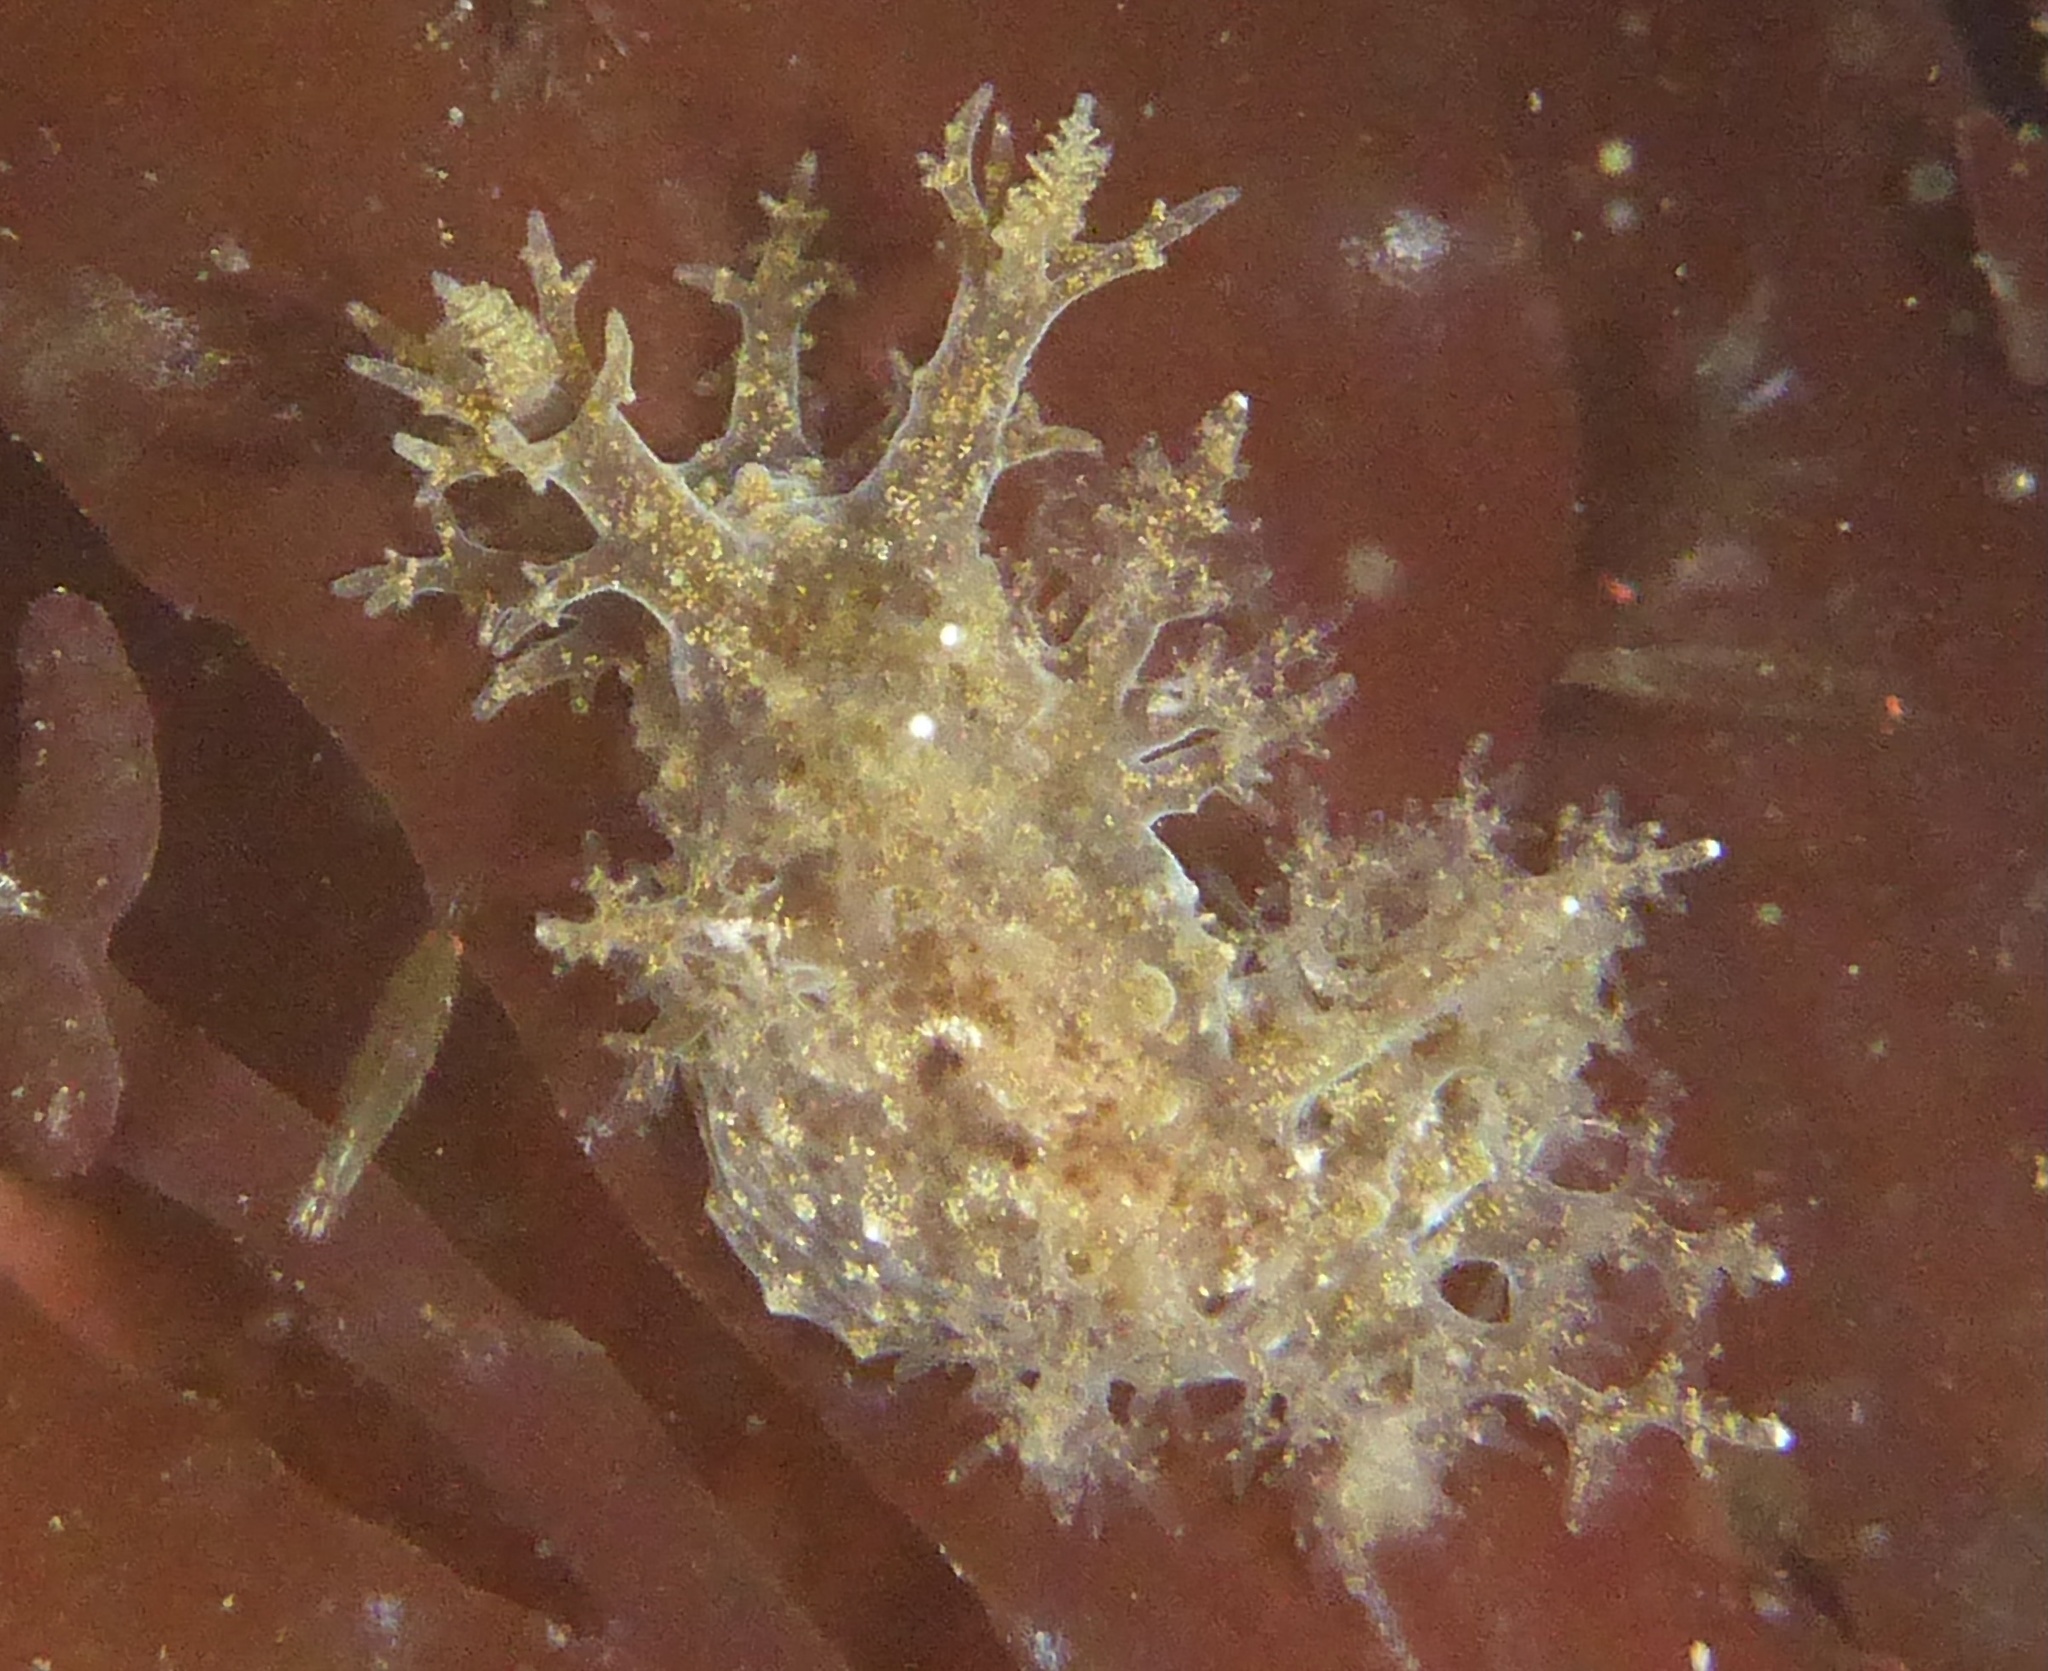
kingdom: Animalia
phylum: Mollusca
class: Gastropoda
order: Nudibranchia
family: Dendronotidae
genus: Dendronotus
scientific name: Dendronotus venustus
